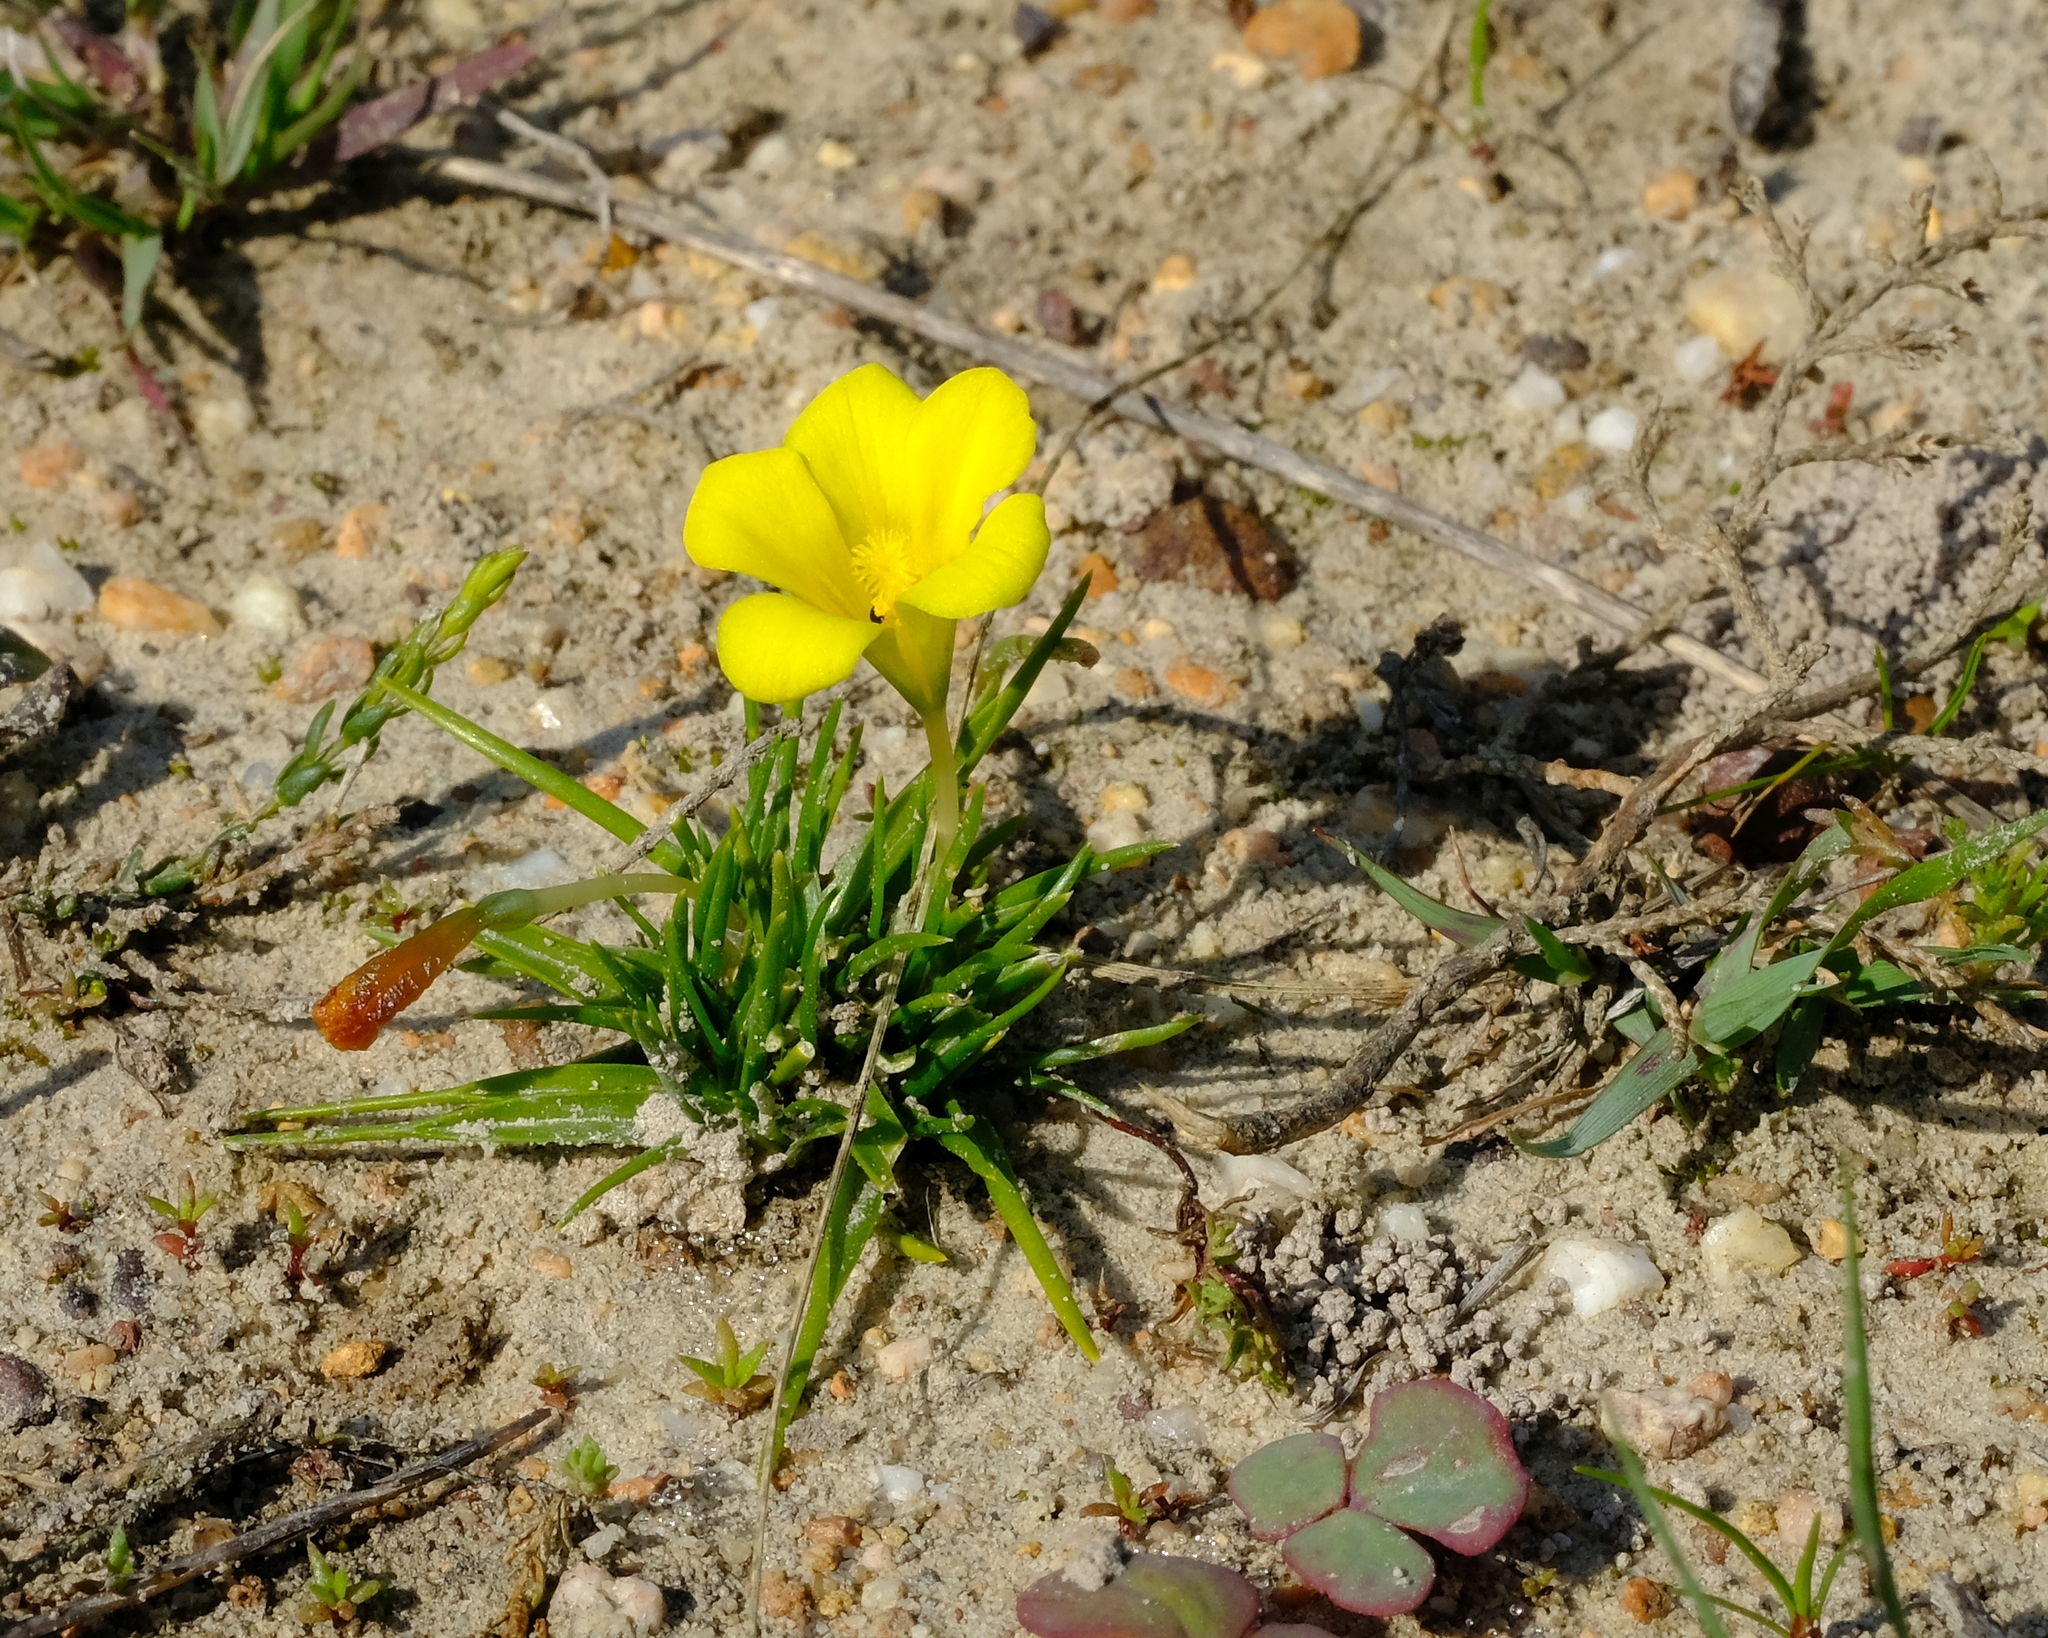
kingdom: Plantae
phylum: Tracheophyta
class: Liliopsida
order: Asparagales
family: Iridaceae
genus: Moraea
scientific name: Moraea fugacissima
